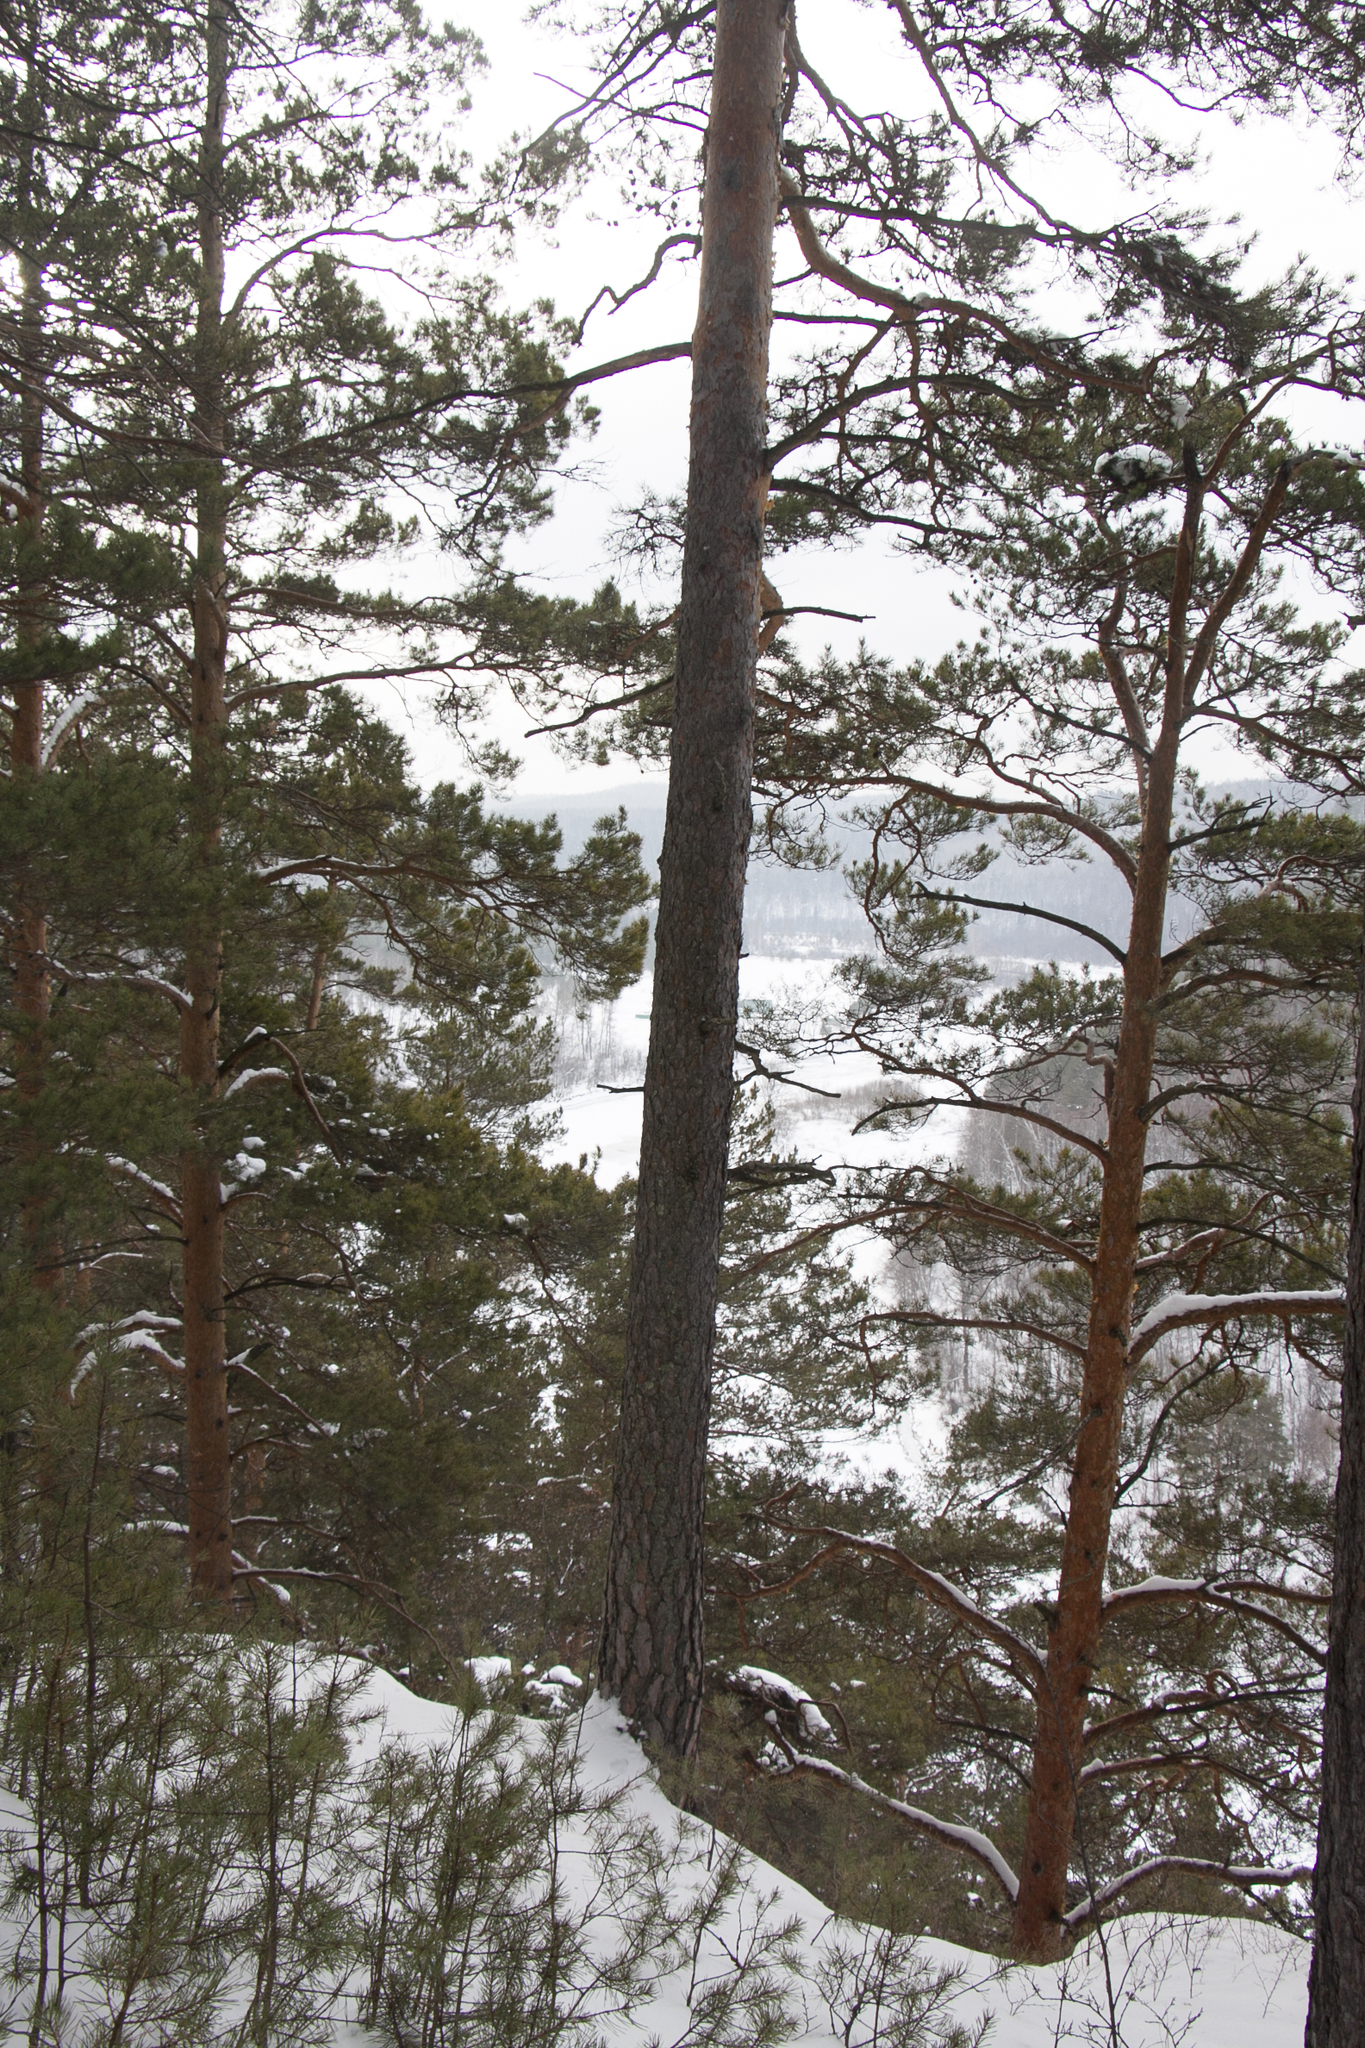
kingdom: Plantae
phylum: Tracheophyta
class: Pinopsida
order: Pinales
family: Pinaceae
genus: Pinus
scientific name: Pinus sylvestris
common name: Scots pine
